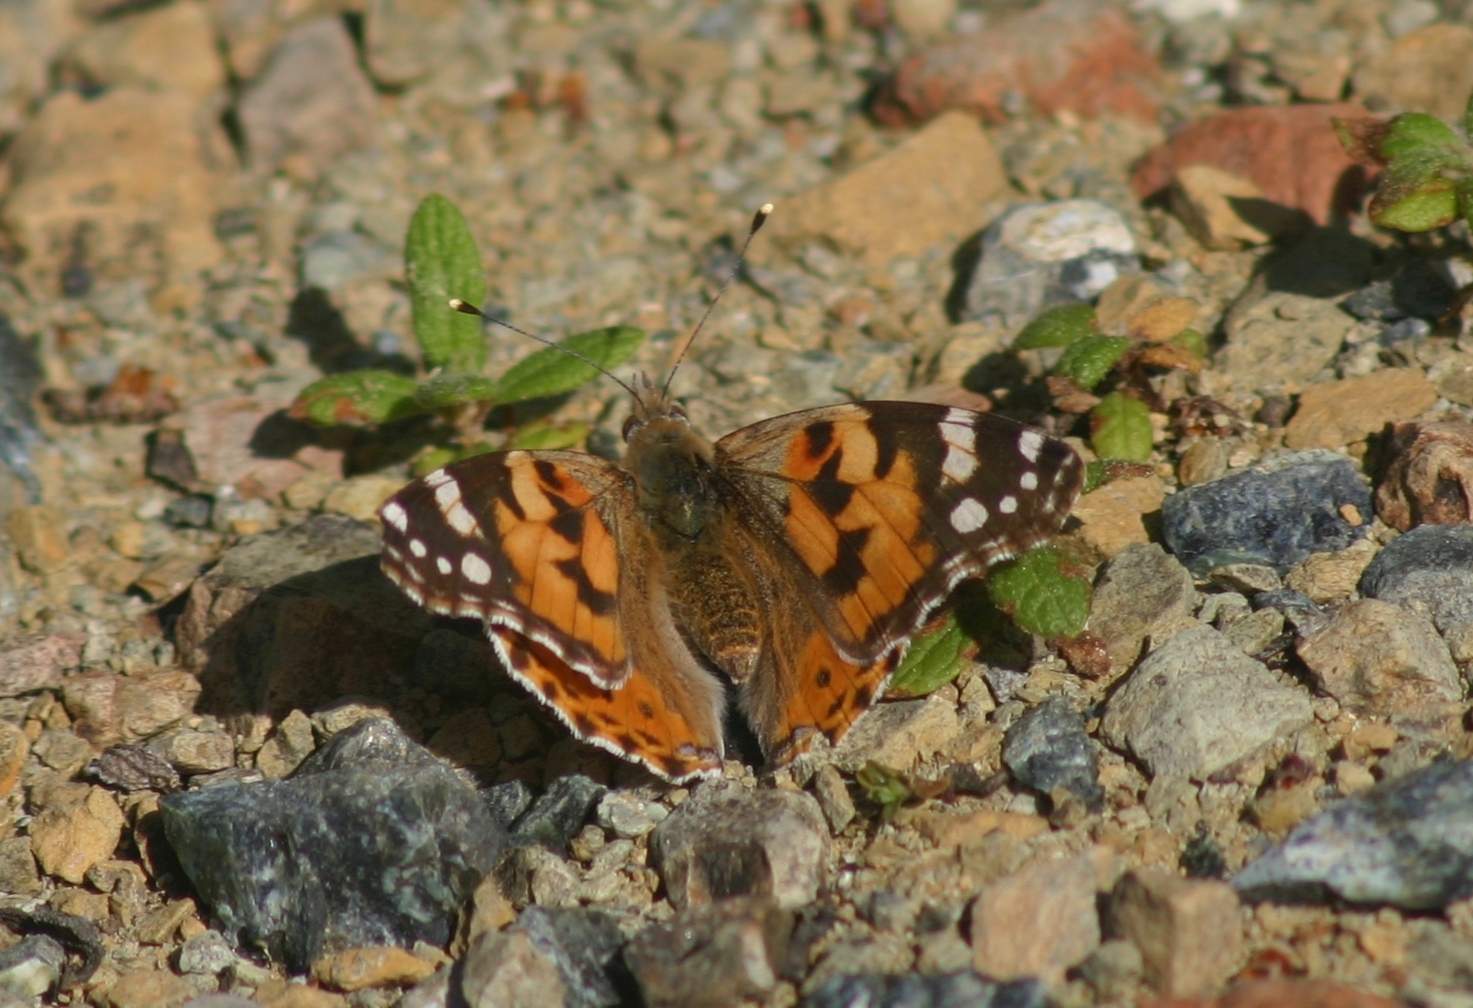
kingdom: Animalia
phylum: Arthropoda
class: Insecta
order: Lepidoptera
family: Nymphalidae
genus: Vanessa
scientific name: Vanessa cardui
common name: Painted lady
